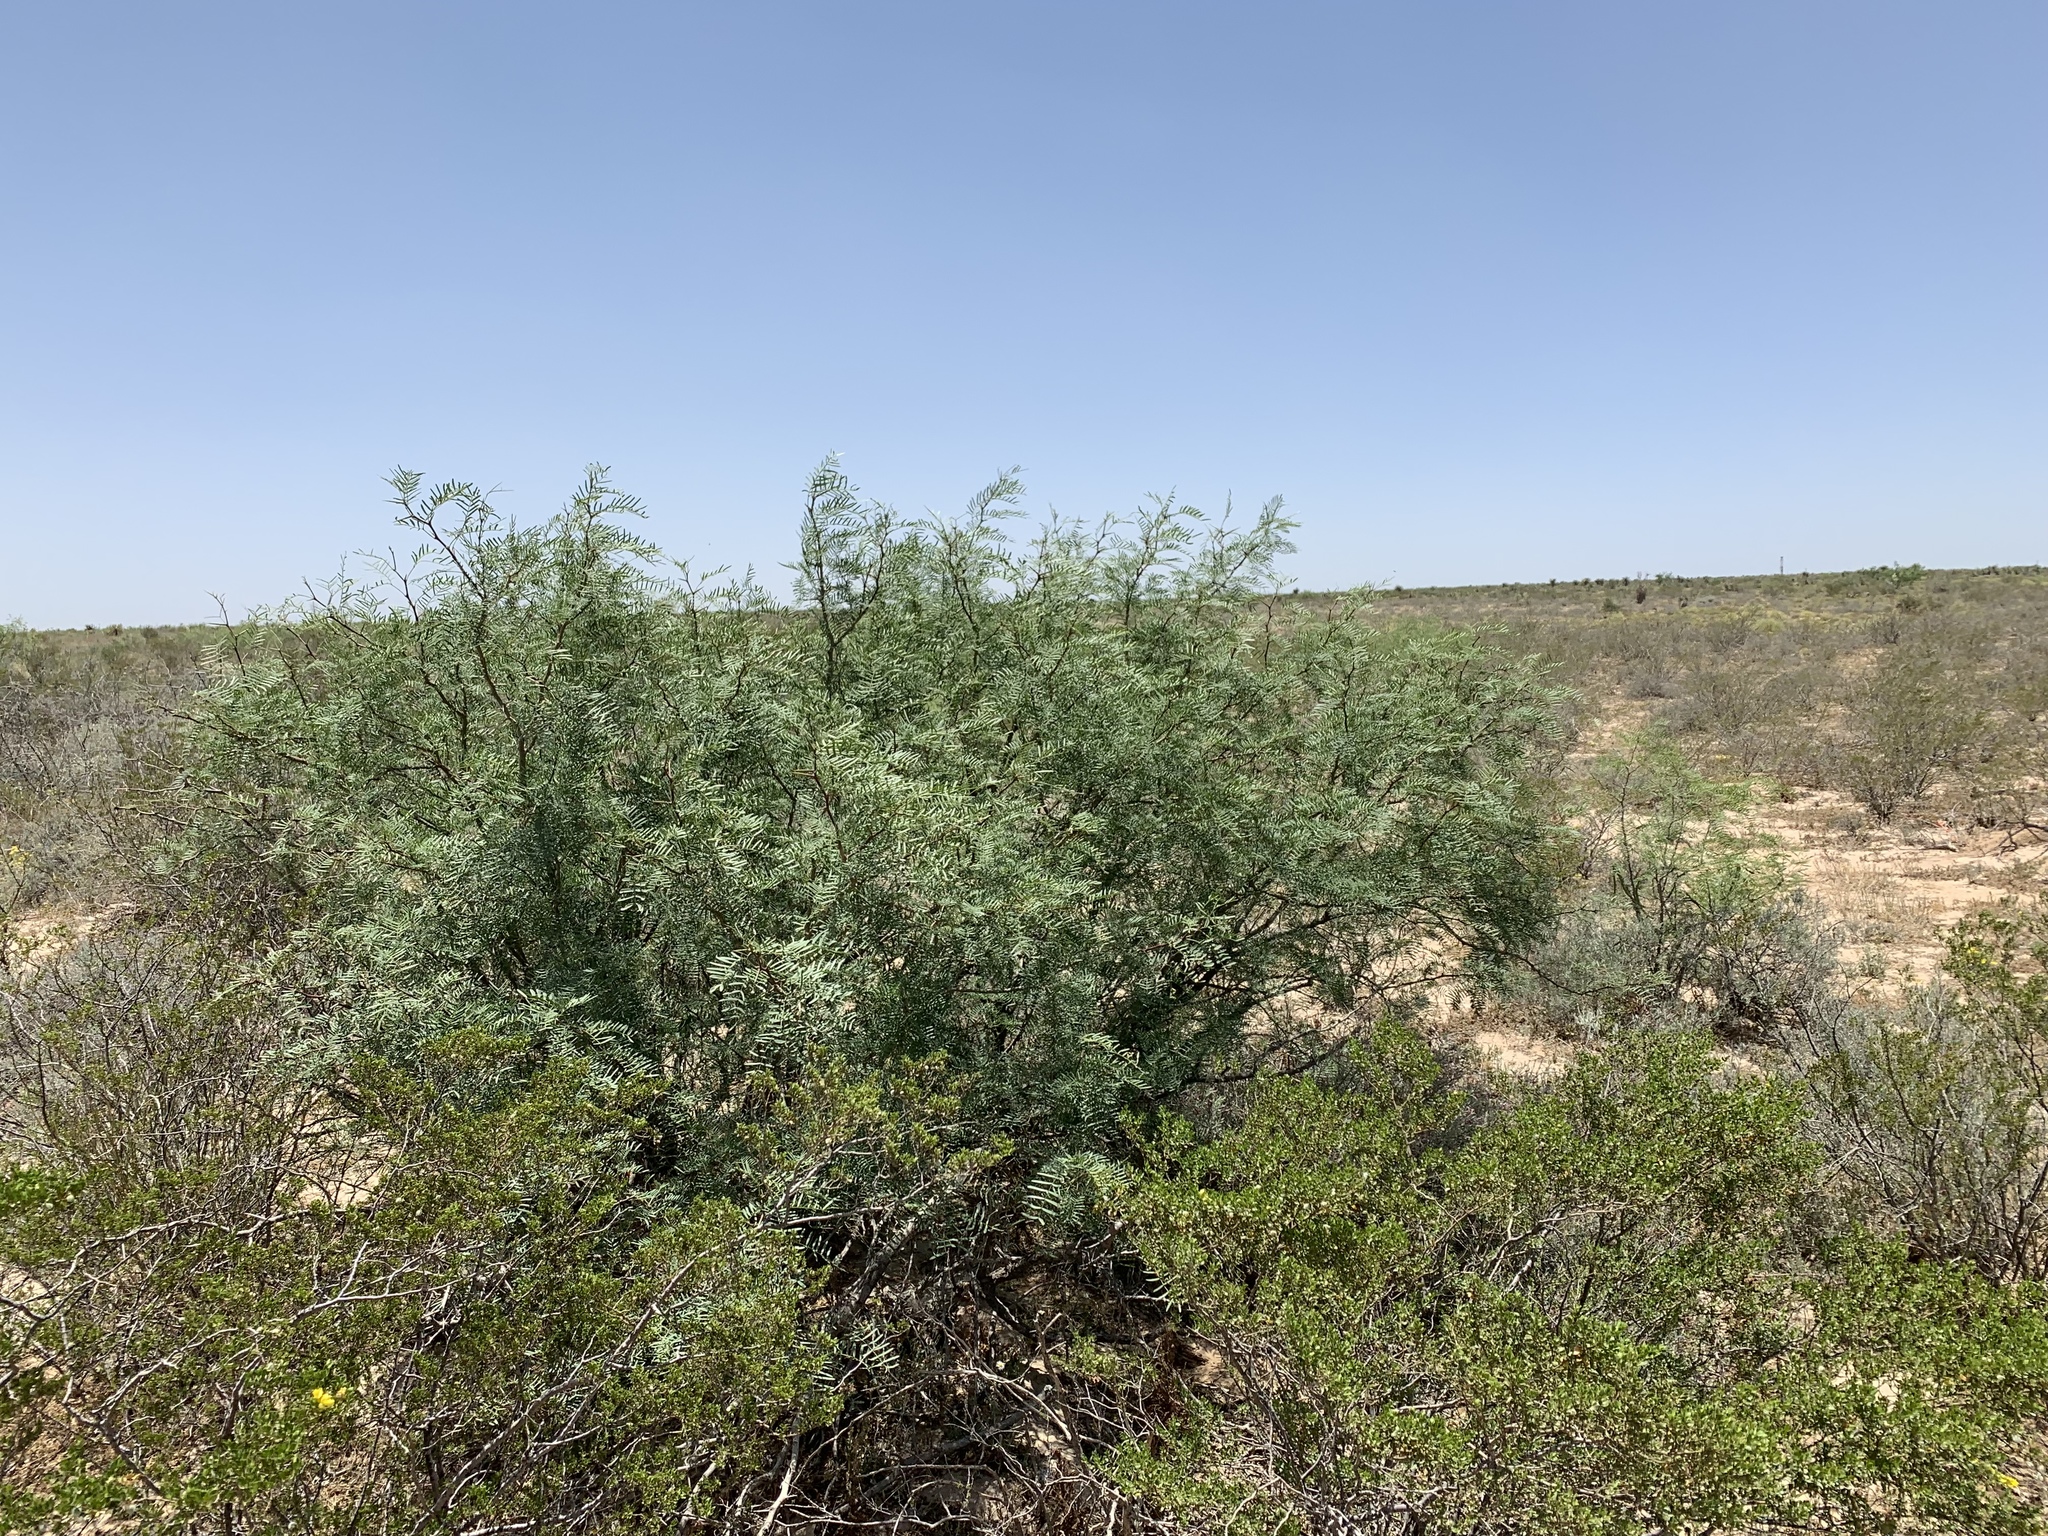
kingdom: Plantae
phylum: Tracheophyta
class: Magnoliopsida
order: Fabales
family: Fabaceae
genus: Prosopis
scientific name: Prosopis glandulosa
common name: Honey mesquite
